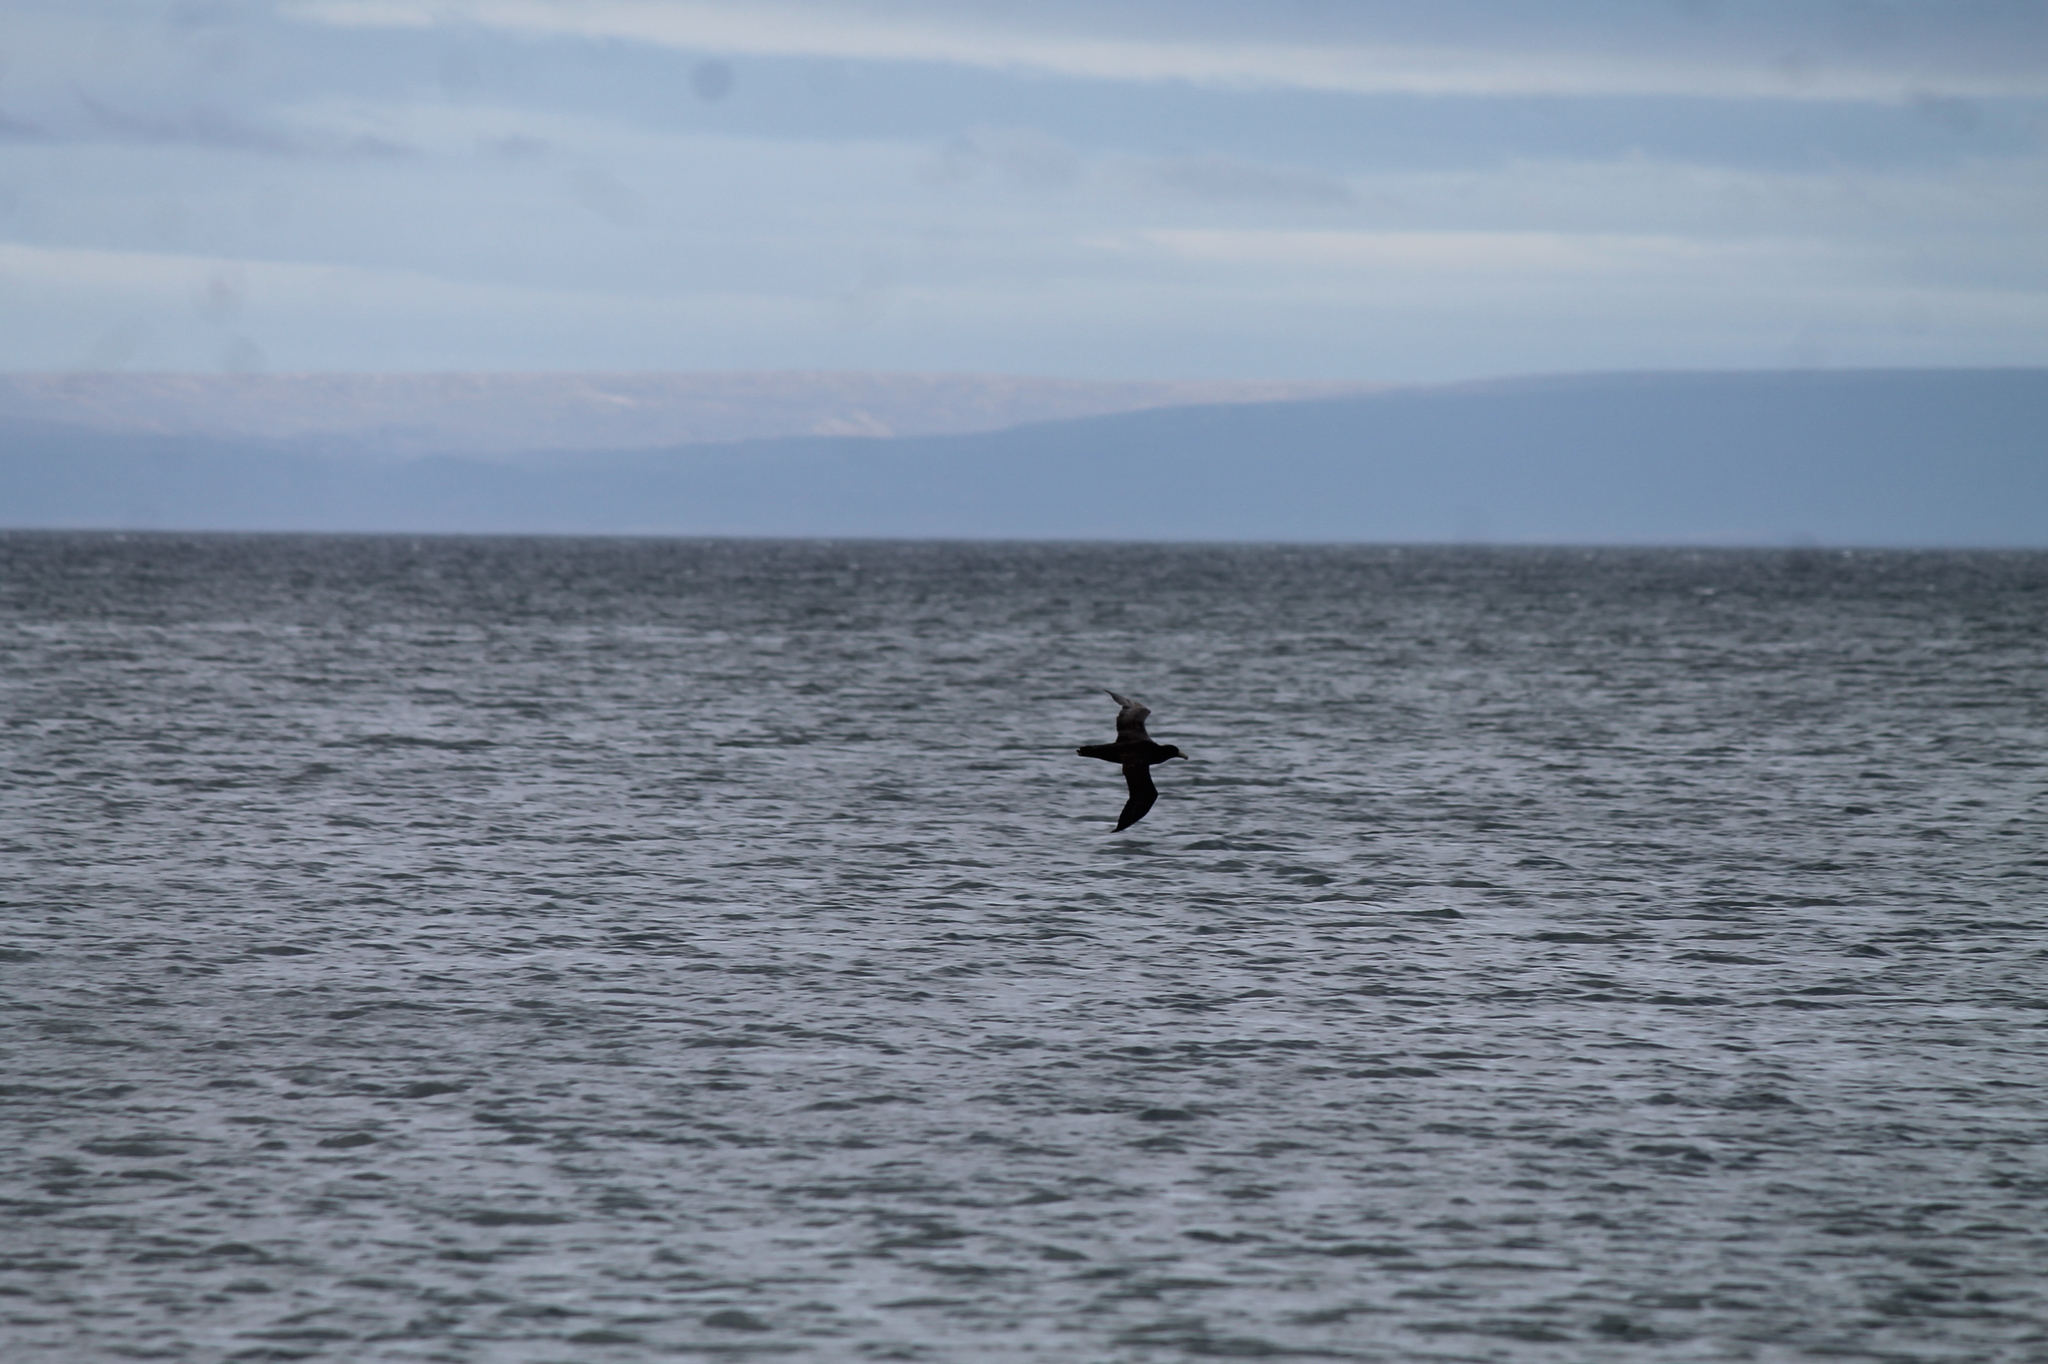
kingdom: Animalia
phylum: Chordata
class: Aves
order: Procellariiformes
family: Procellariidae
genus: Macronectes
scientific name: Macronectes giganteus
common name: Southern giant petrel
